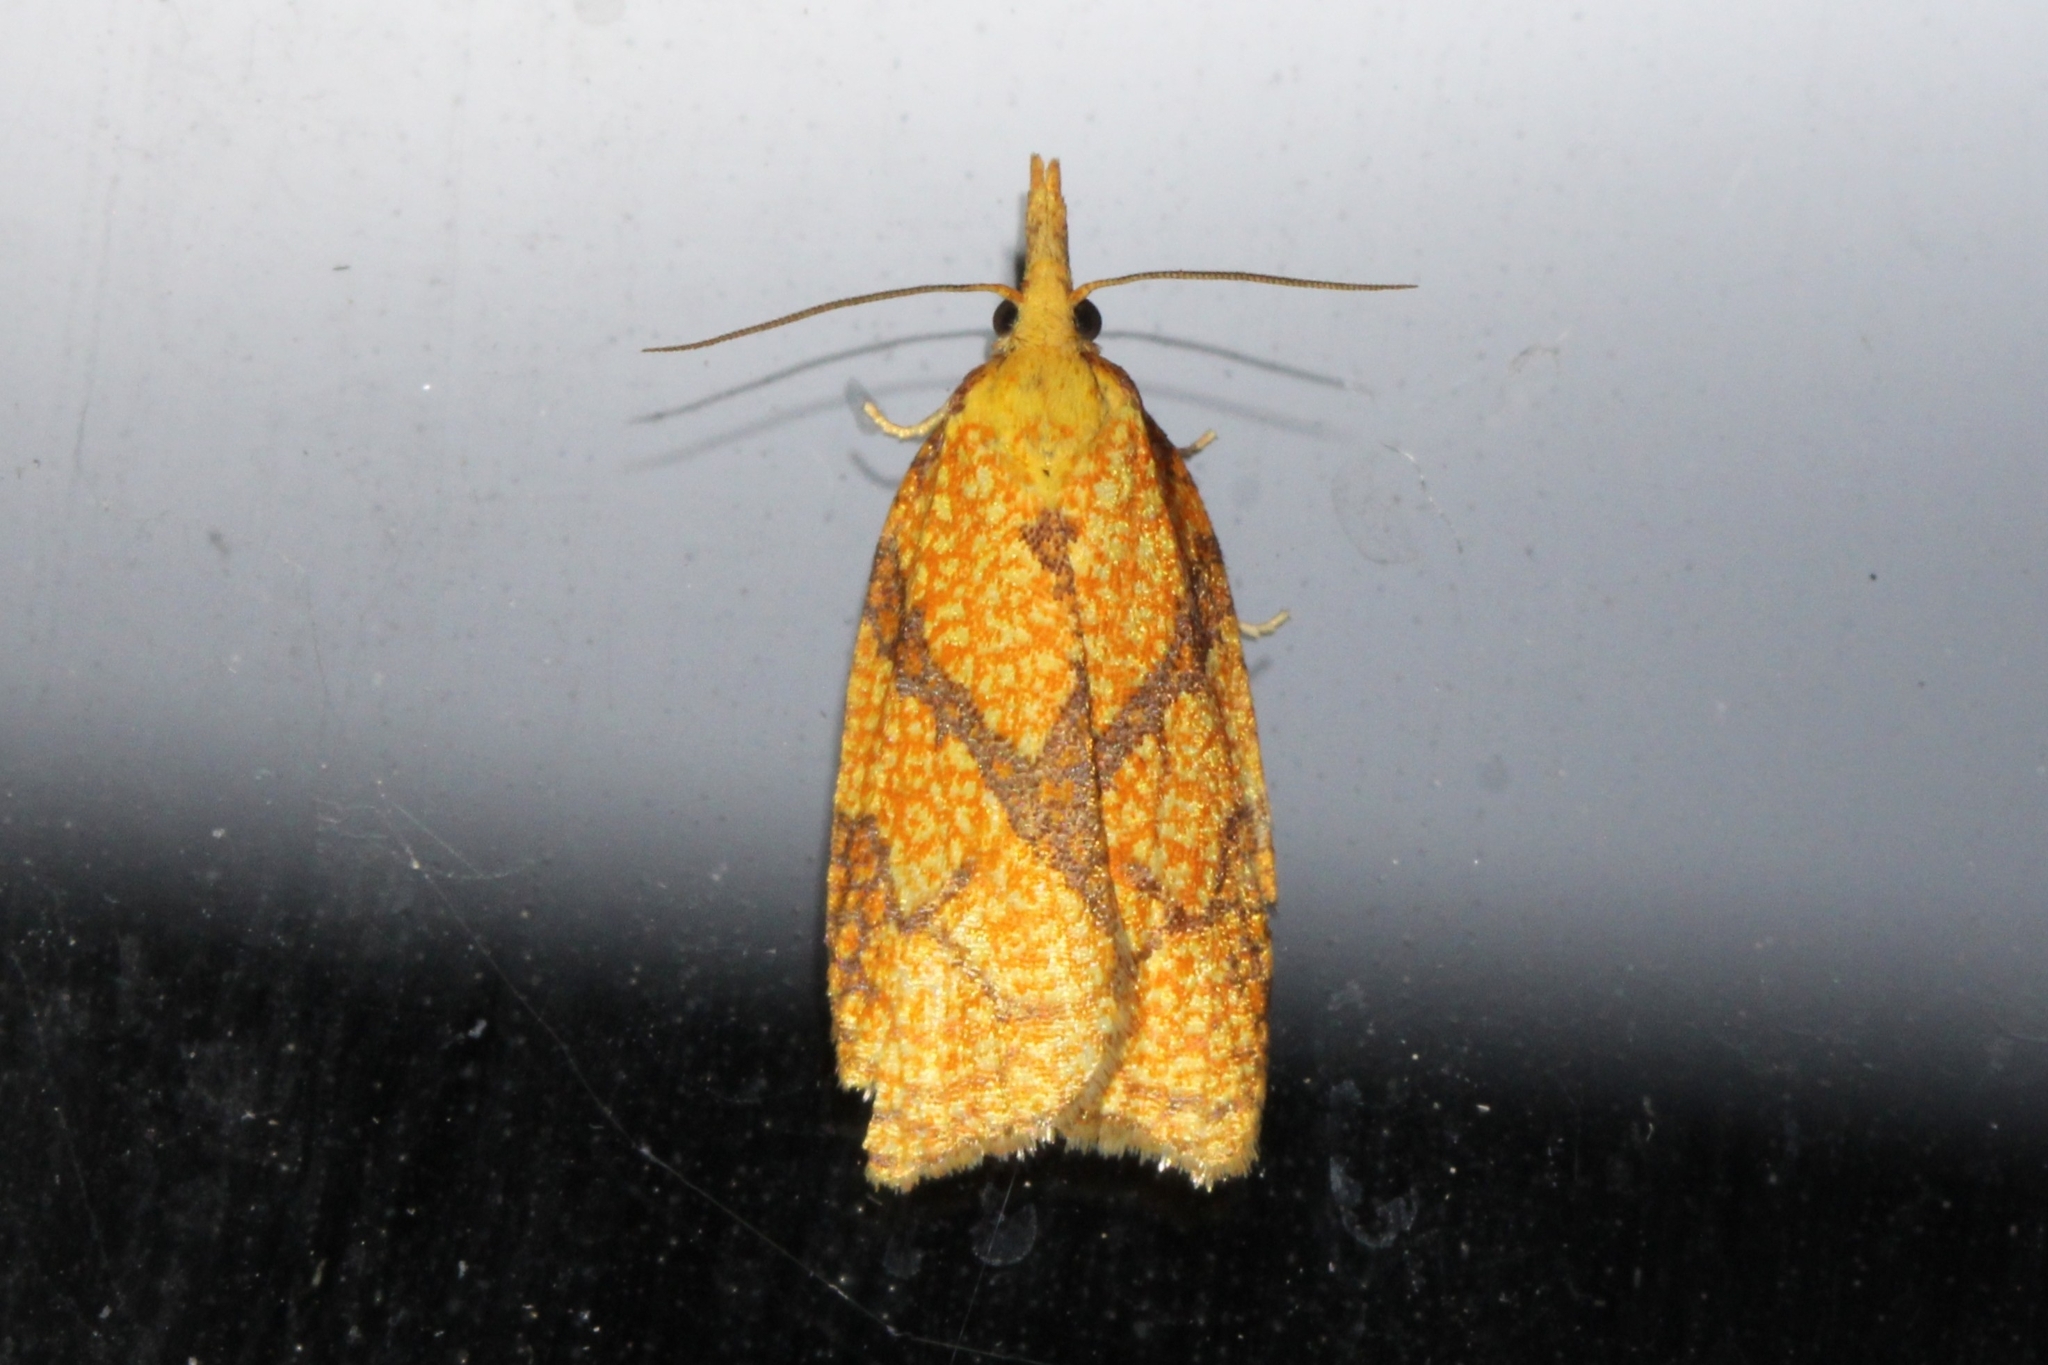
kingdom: Animalia
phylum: Arthropoda
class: Insecta
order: Lepidoptera
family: Tortricidae
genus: Cenopis
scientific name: Cenopis reticulatana
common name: Reticulated fruitworm moth
